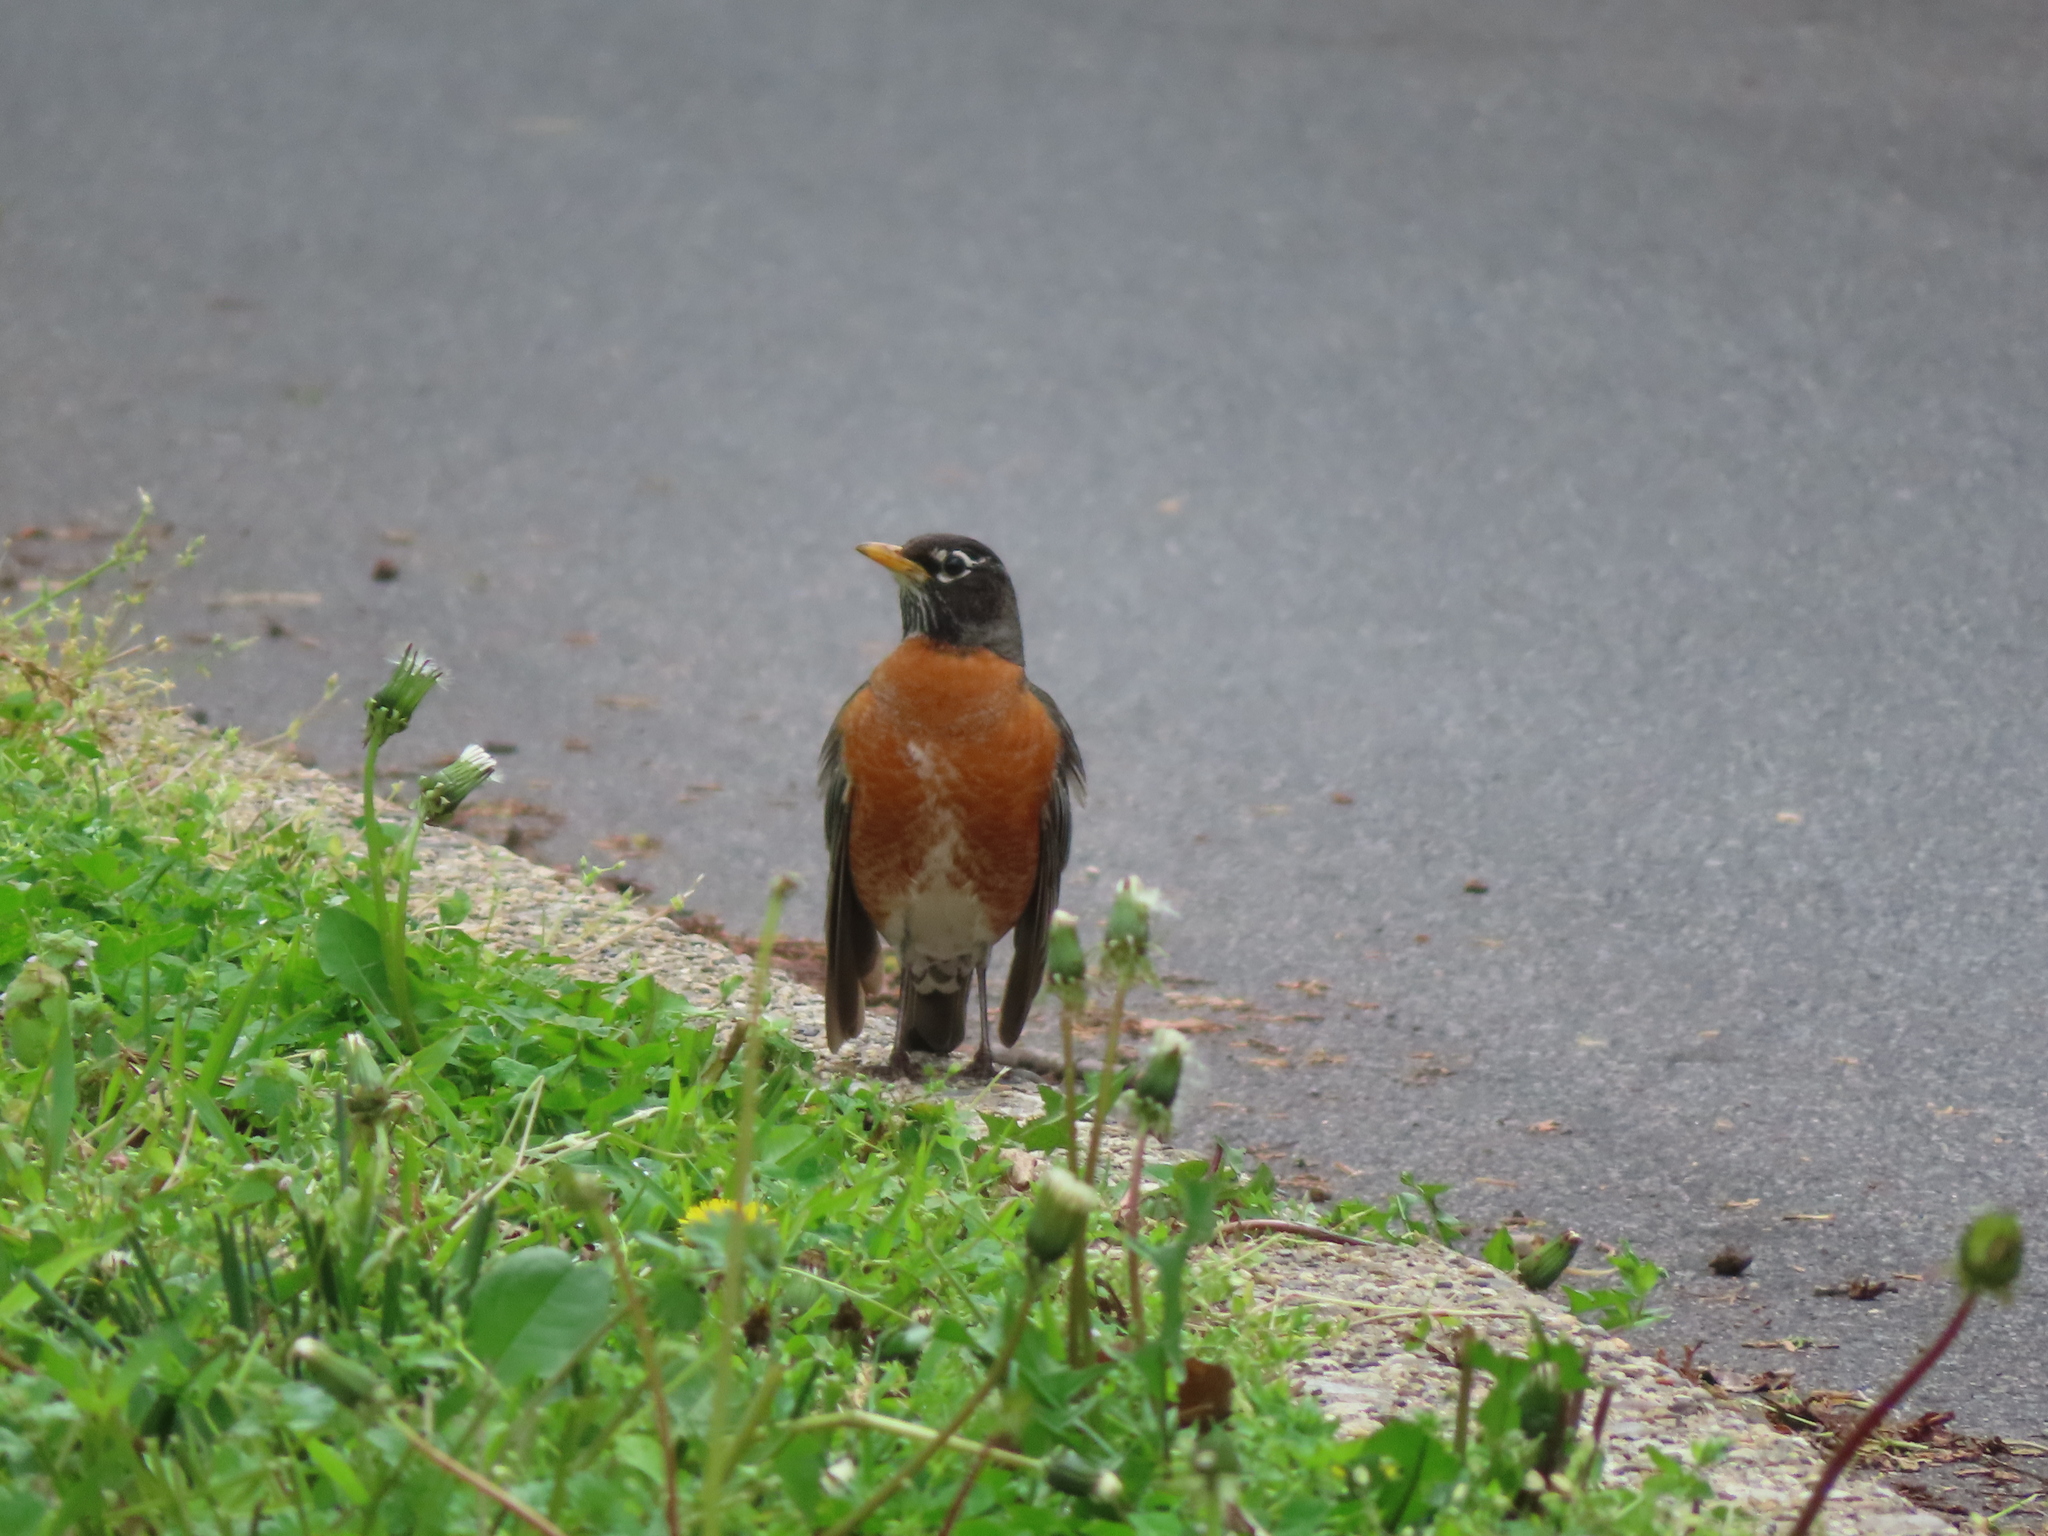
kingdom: Animalia
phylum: Chordata
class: Aves
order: Passeriformes
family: Turdidae
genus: Turdus
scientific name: Turdus migratorius
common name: American robin
